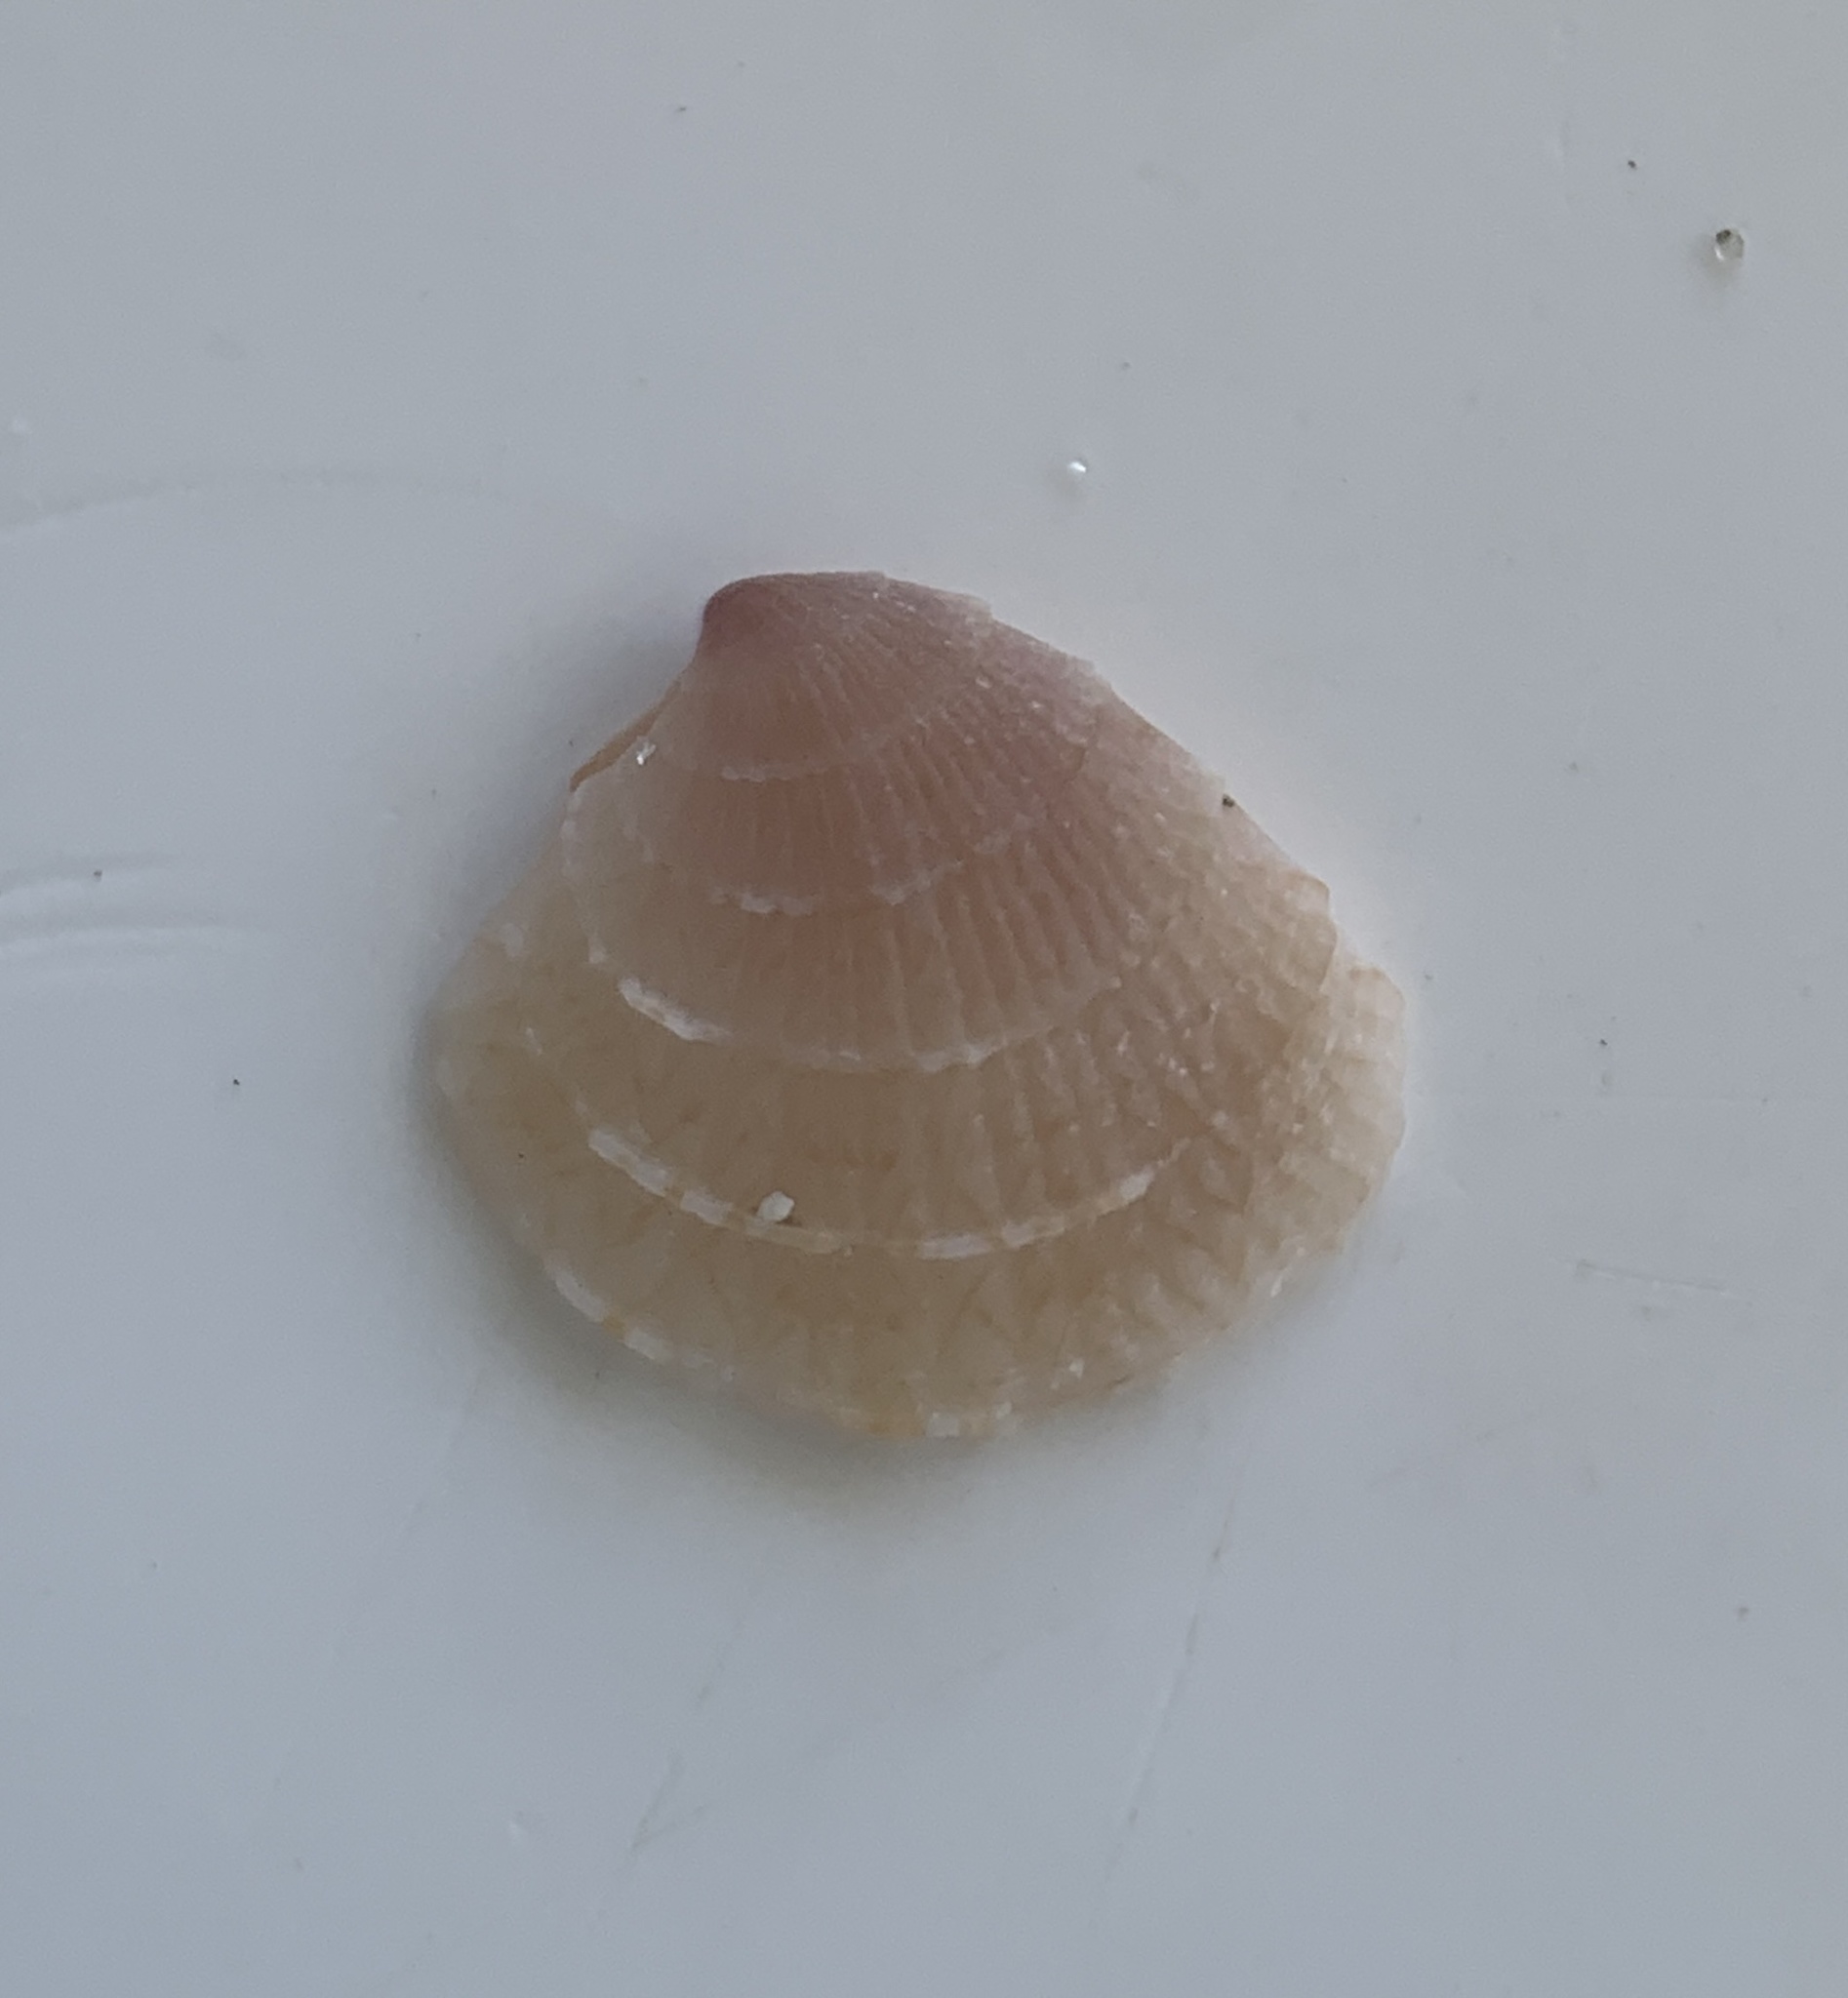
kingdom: Animalia
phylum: Mollusca
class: Bivalvia
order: Venerida
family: Veneridae
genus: Chione
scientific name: Chione elevata
